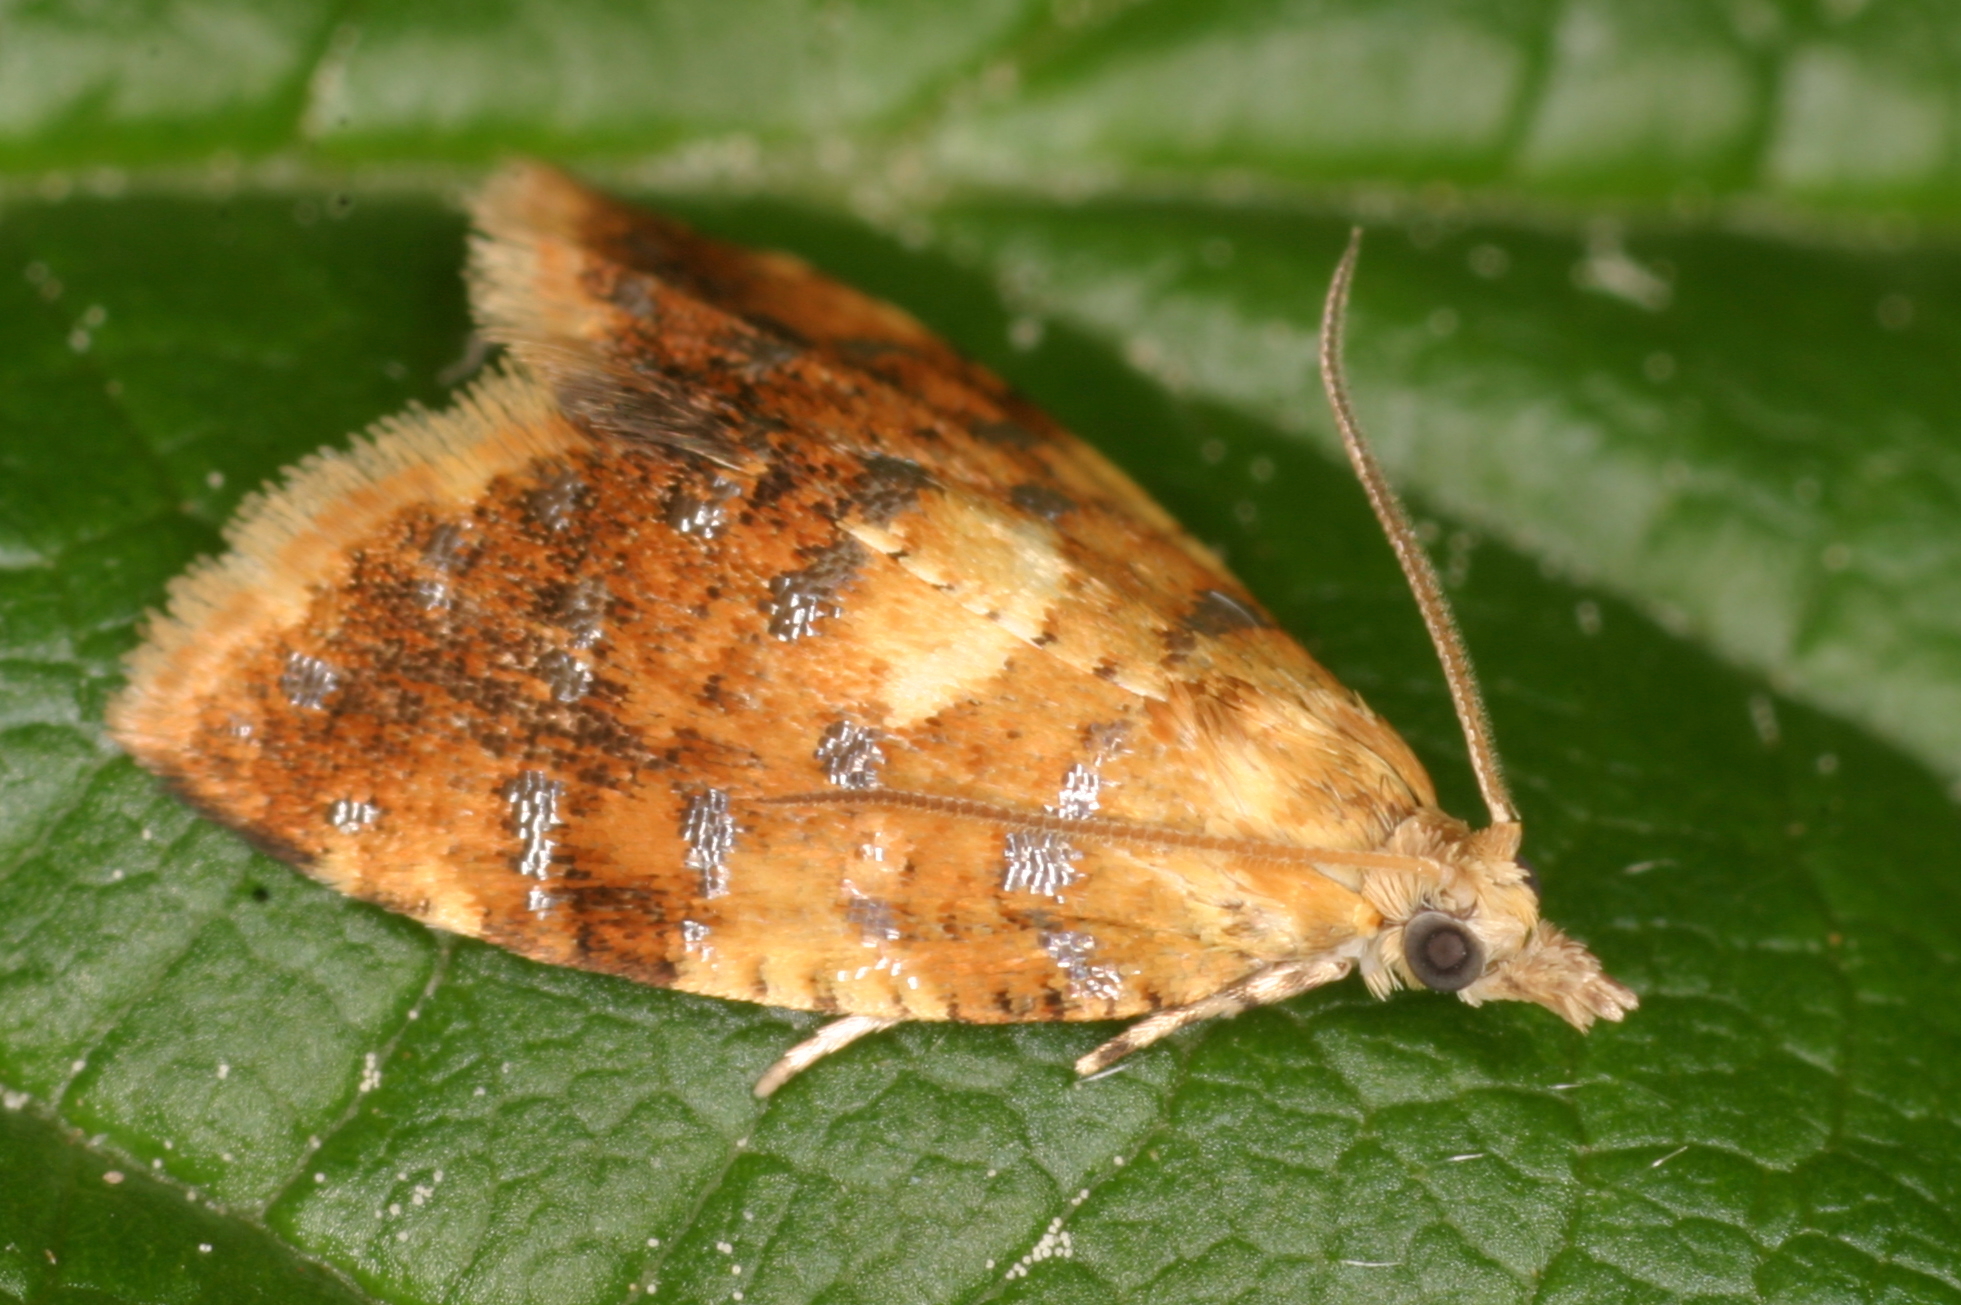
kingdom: Animalia
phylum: Arthropoda
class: Insecta
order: Lepidoptera
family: Tortricidae
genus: Pseudargyrotoza
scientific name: Pseudargyrotoza conwagana
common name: Yellow-spot twist
